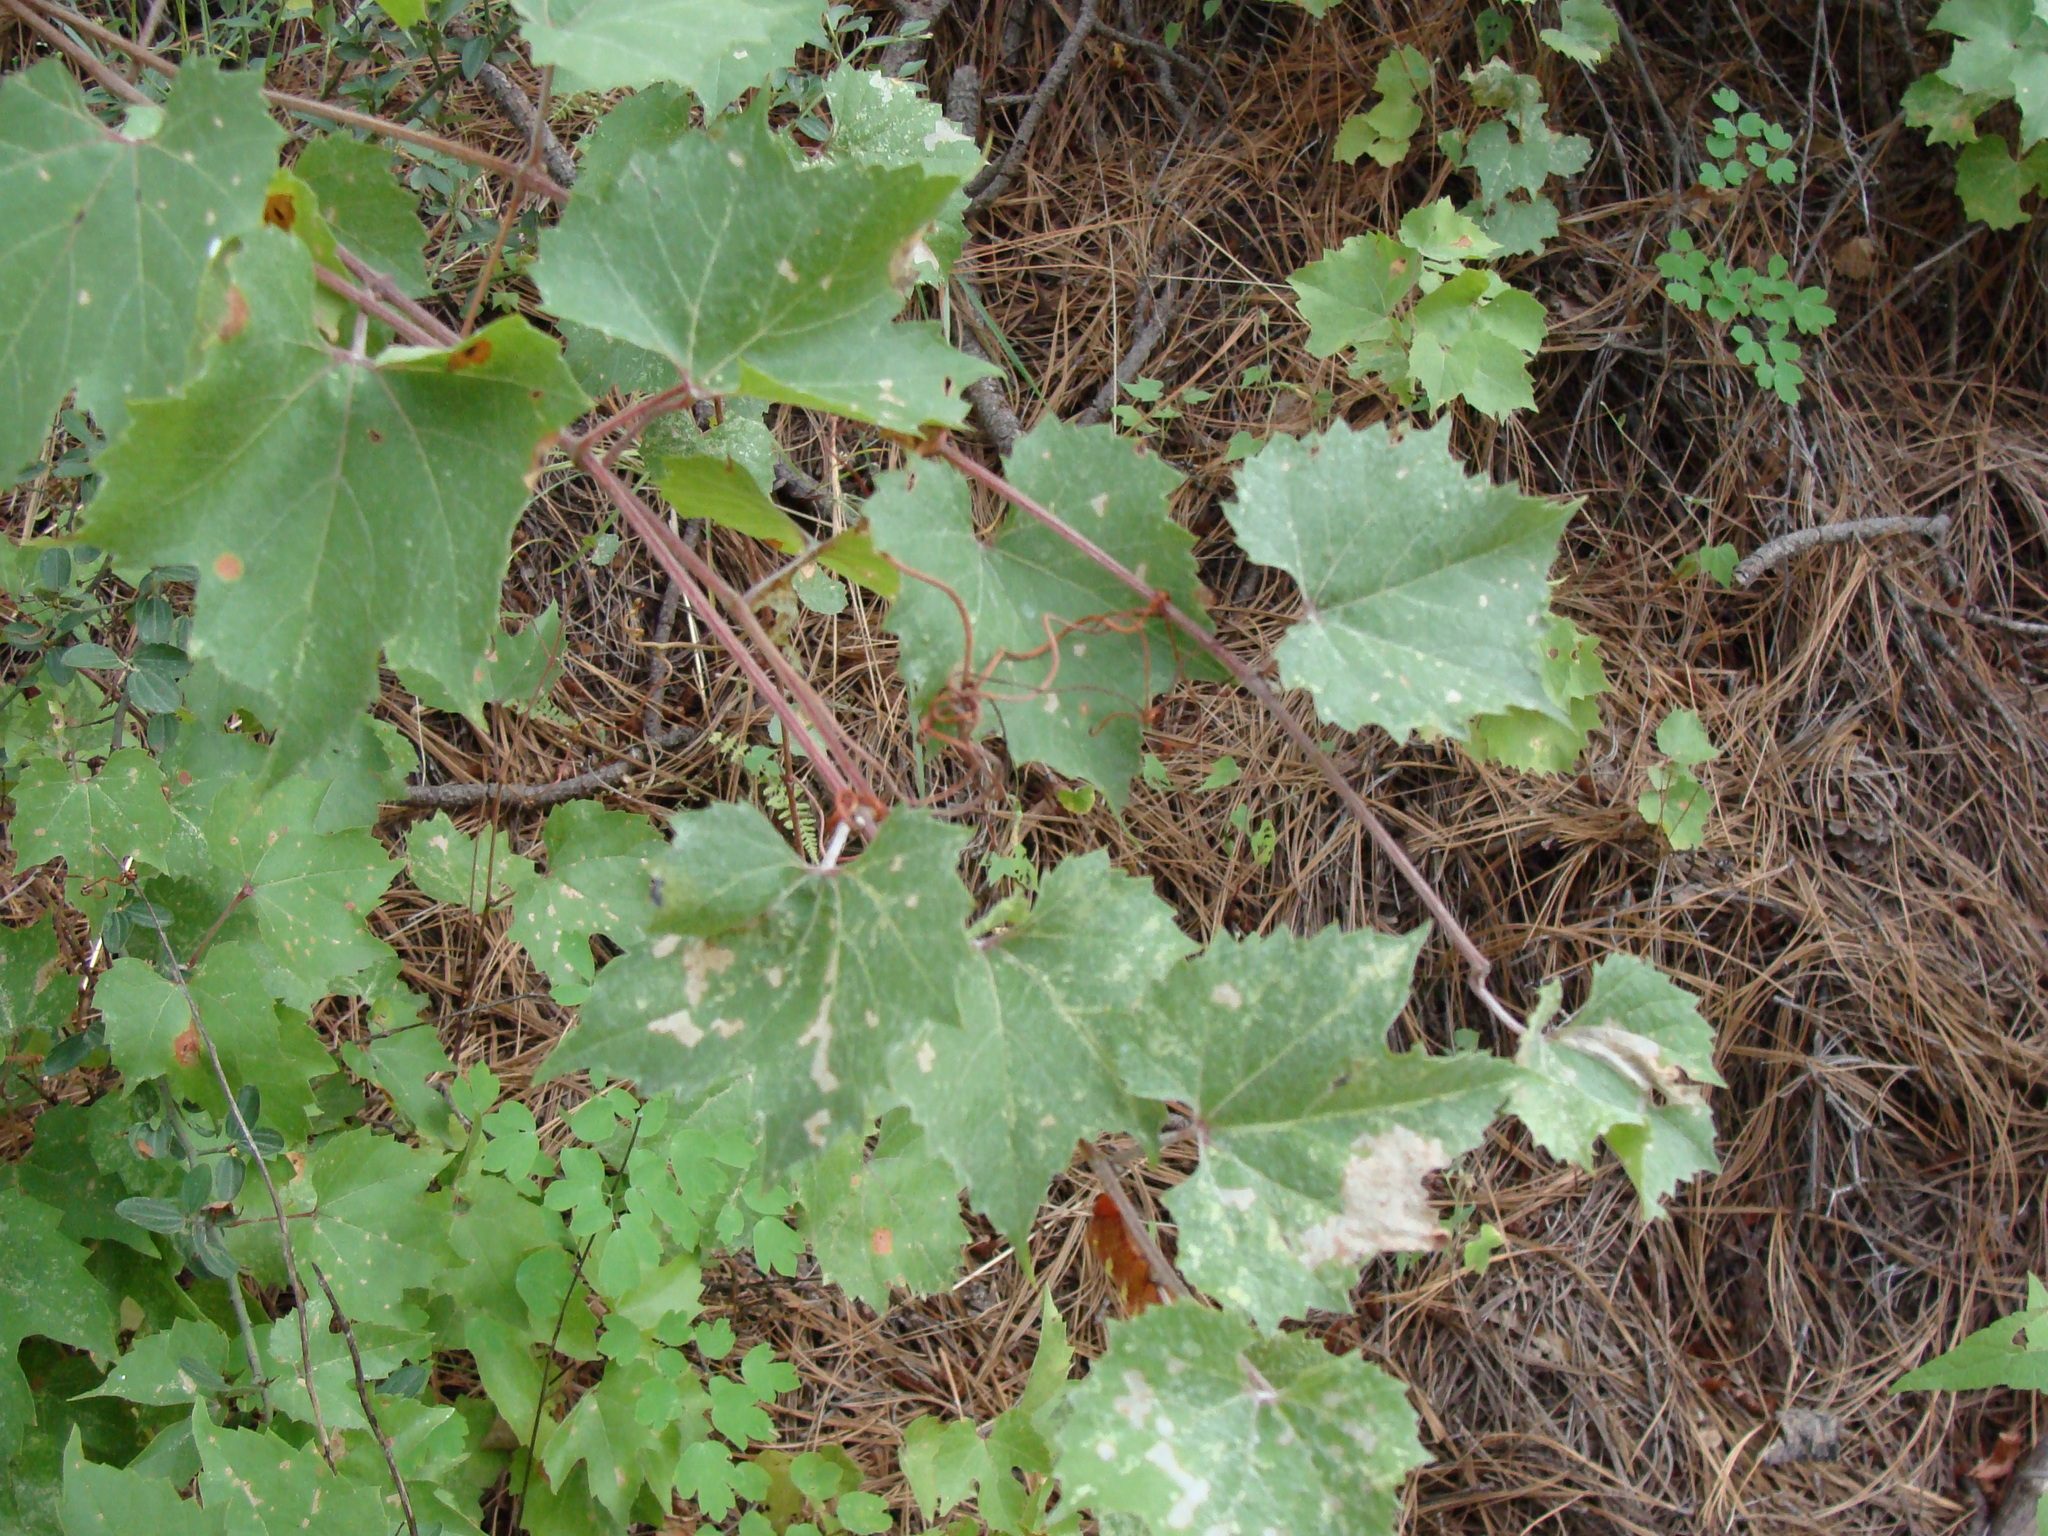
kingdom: Plantae
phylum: Tracheophyta
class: Magnoliopsida
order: Vitales
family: Vitaceae
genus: Vitis
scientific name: Vitis arizonica
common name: Canyon grape
